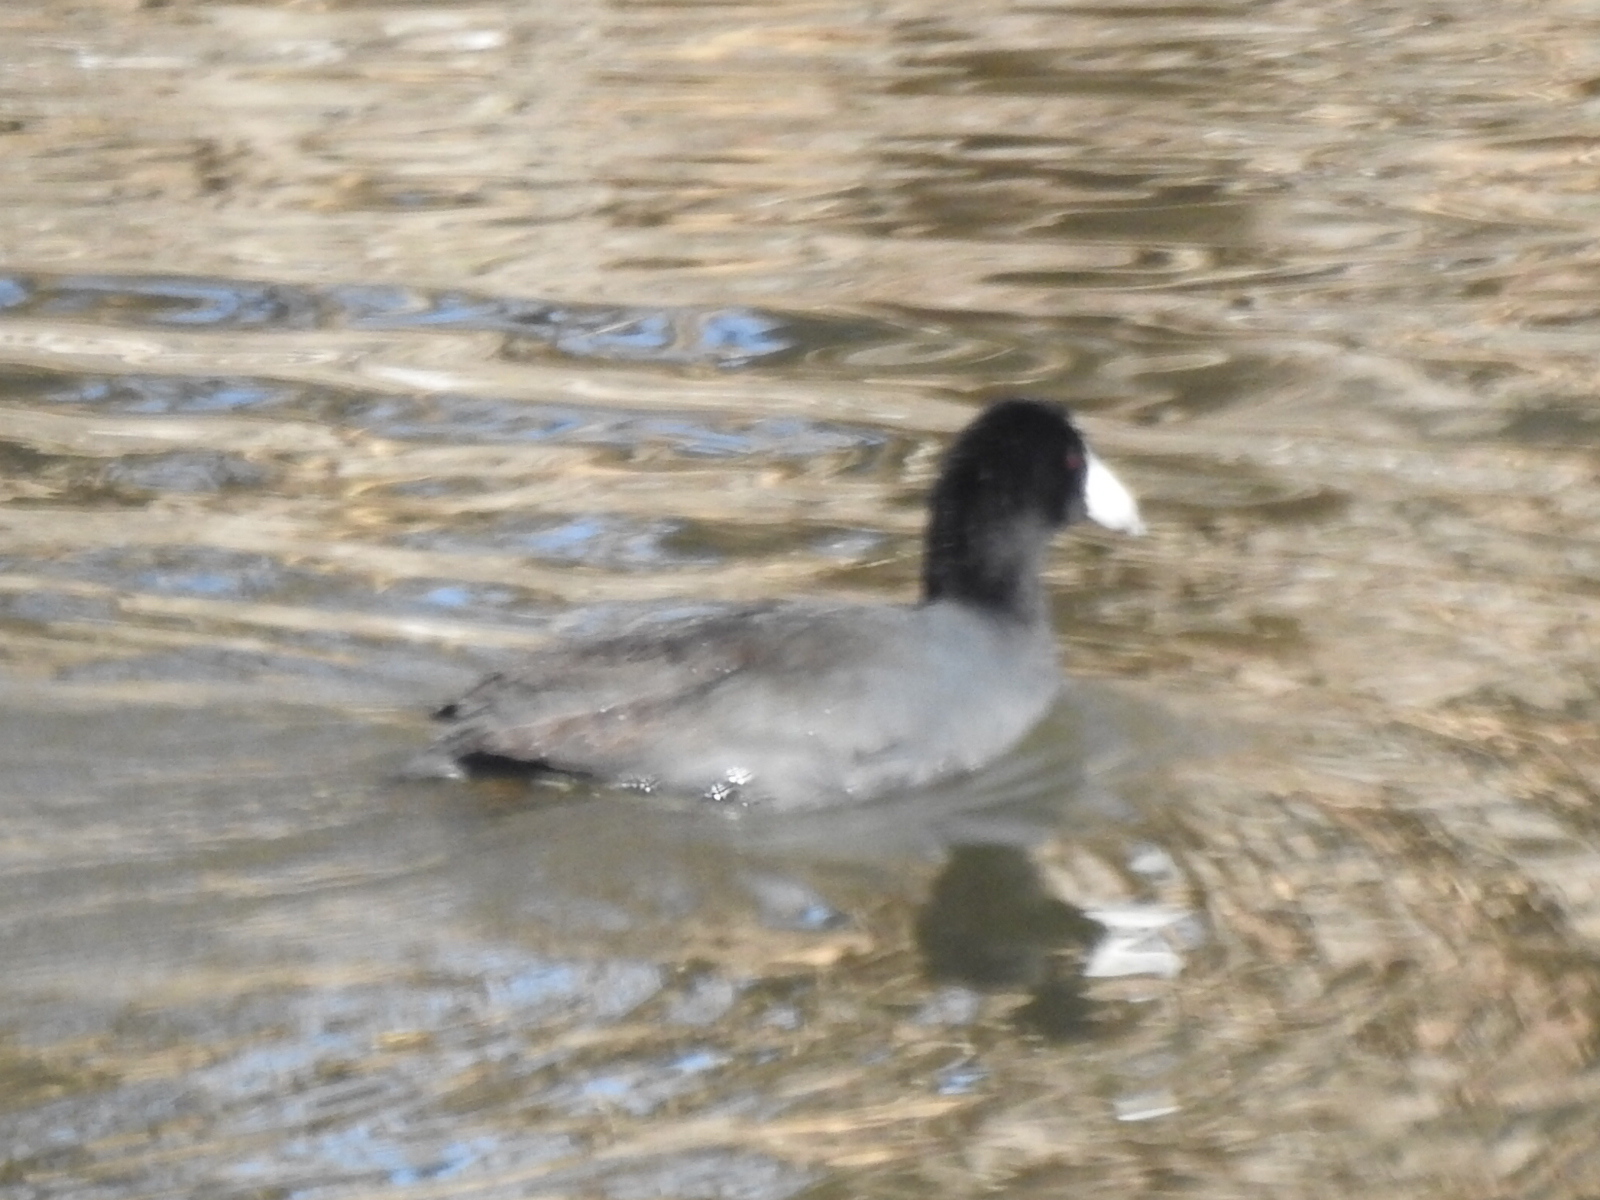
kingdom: Animalia
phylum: Chordata
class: Aves
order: Gruiformes
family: Rallidae
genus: Fulica
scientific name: Fulica americana
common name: American coot
